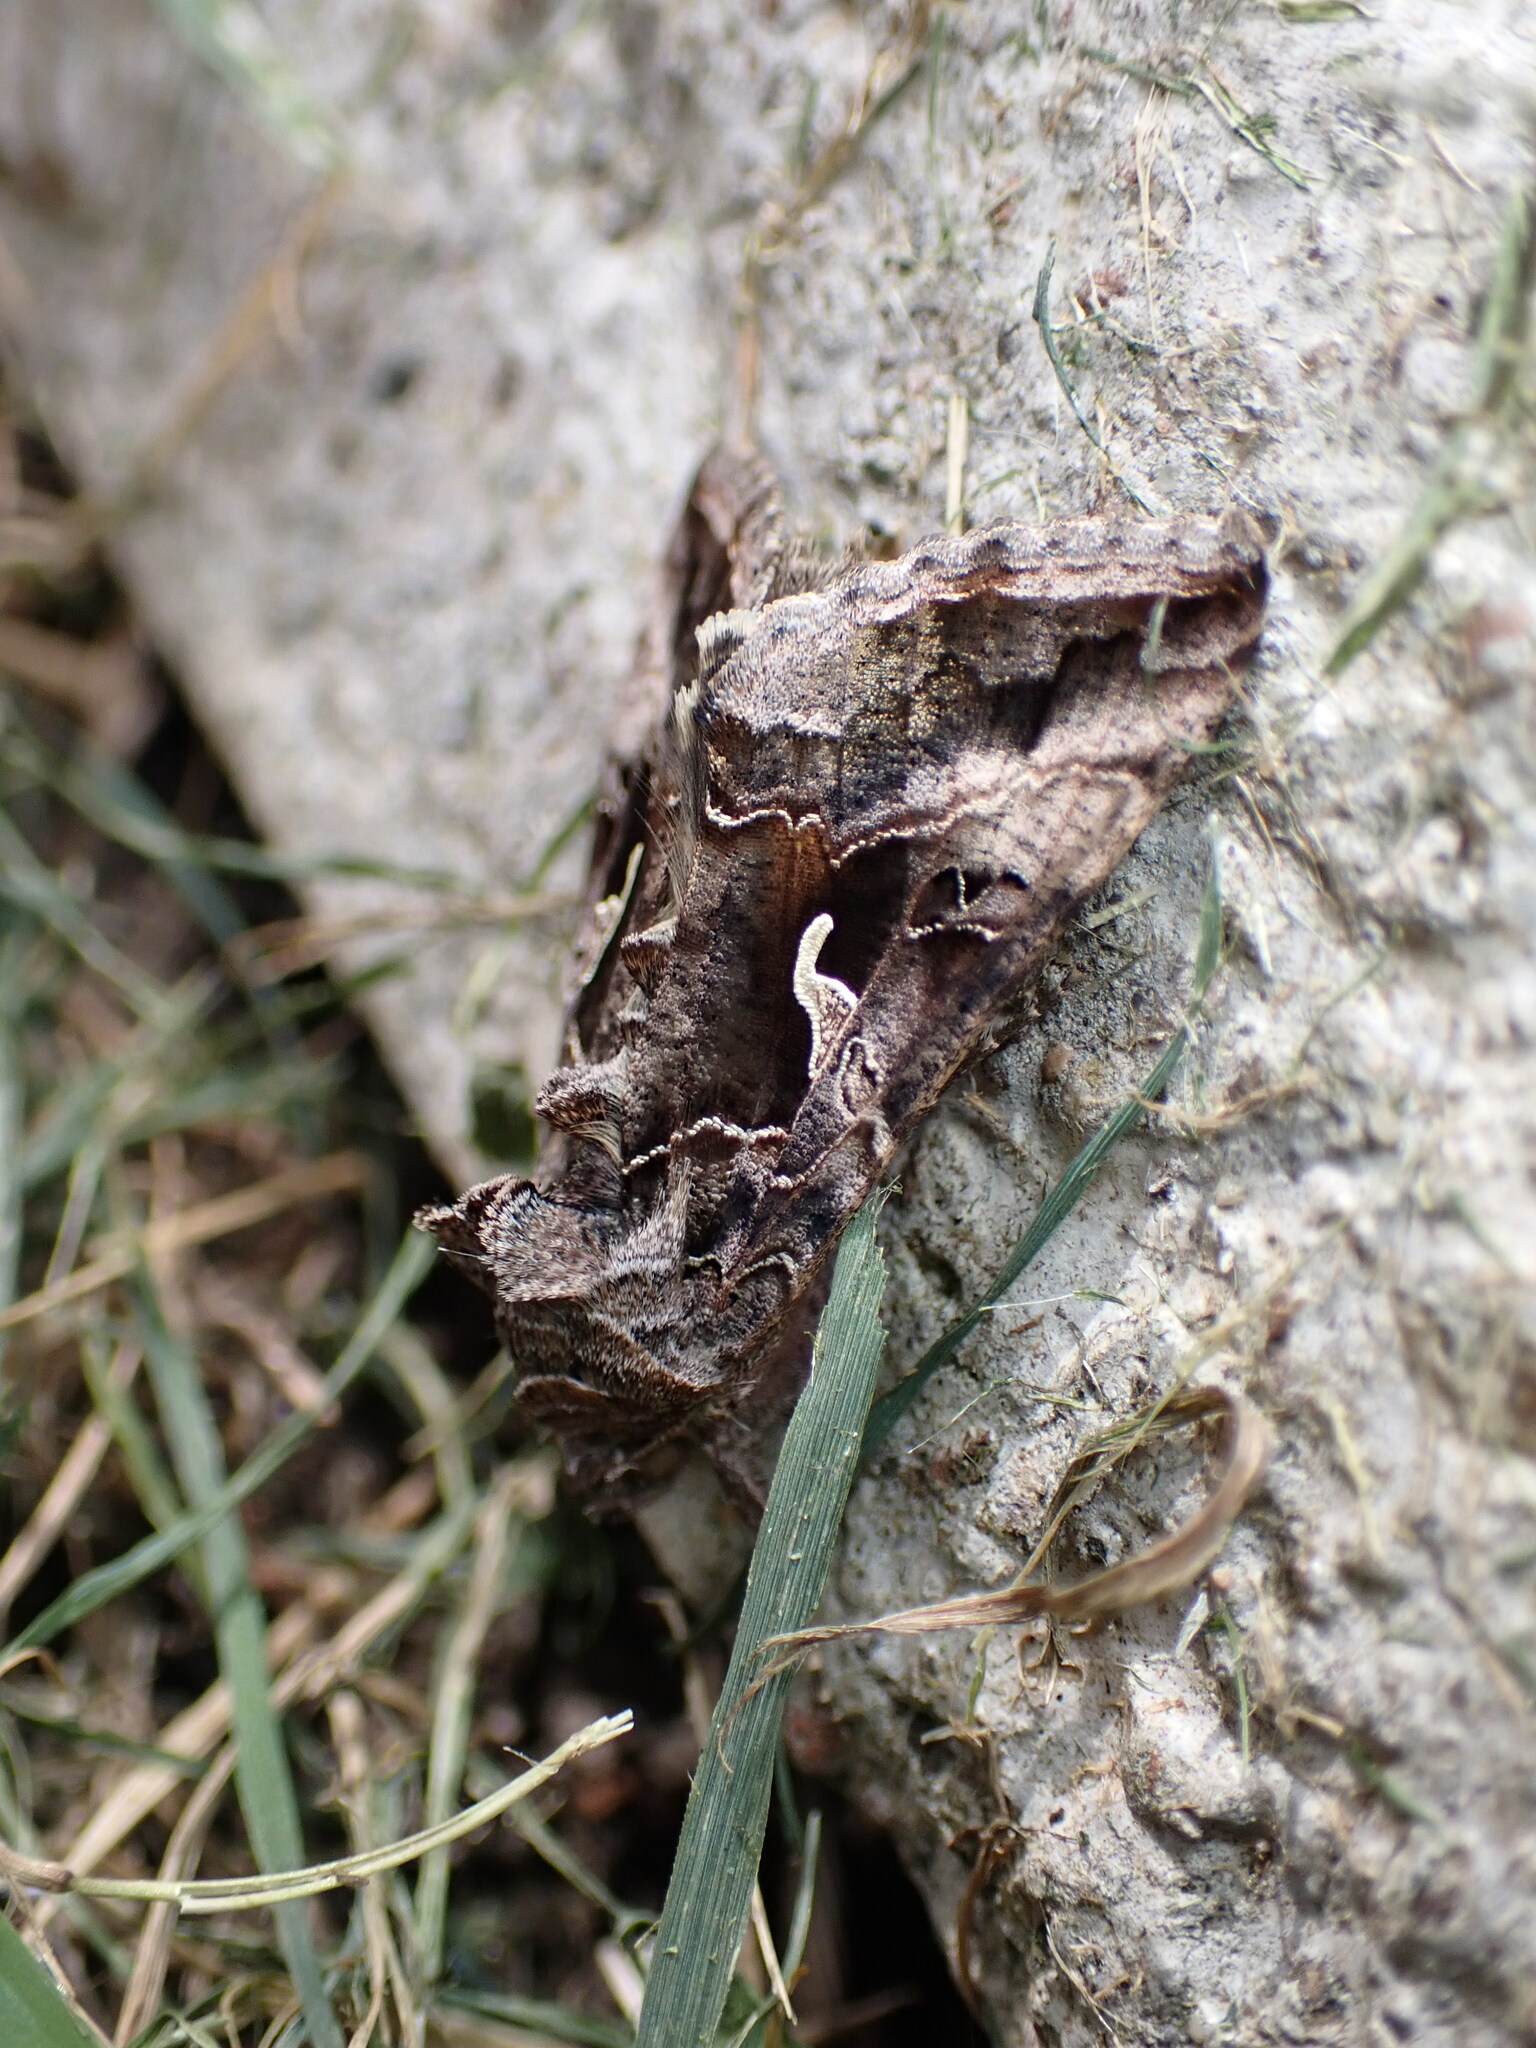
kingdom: Animalia
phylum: Arthropoda
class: Insecta
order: Lepidoptera
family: Noctuidae
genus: Autographa
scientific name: Autographa gamma
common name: Silver y
